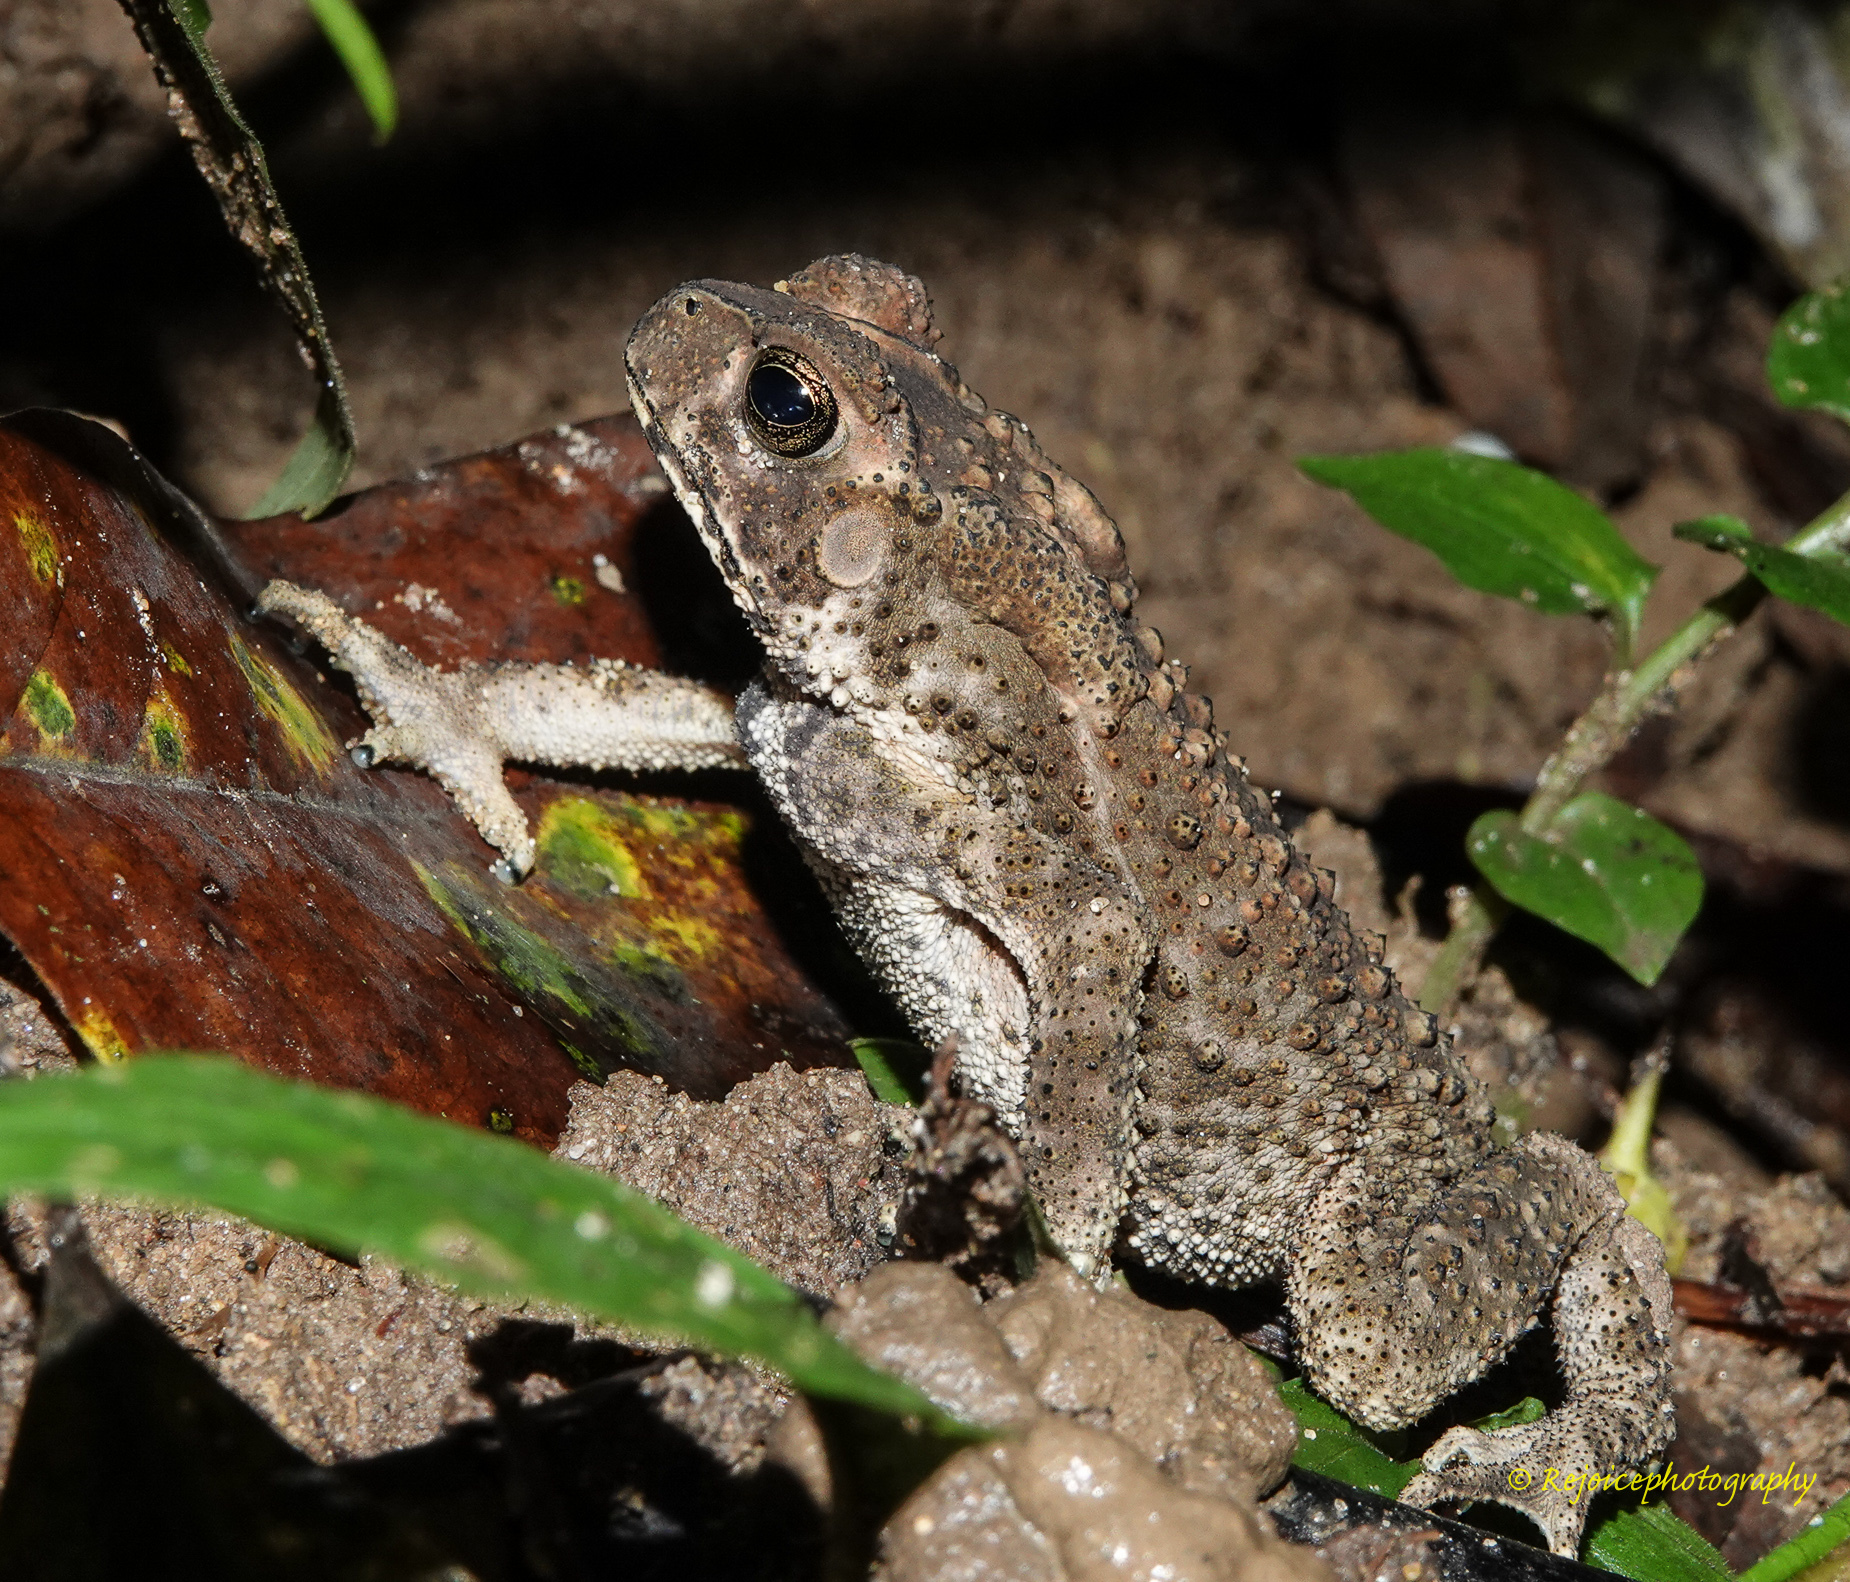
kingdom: Animalia
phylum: Chordata
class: Amphibia
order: Anura
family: Bufonidae
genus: Duttaphrynus
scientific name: Duttaphrynus melanostictus
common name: Common sunda toad
